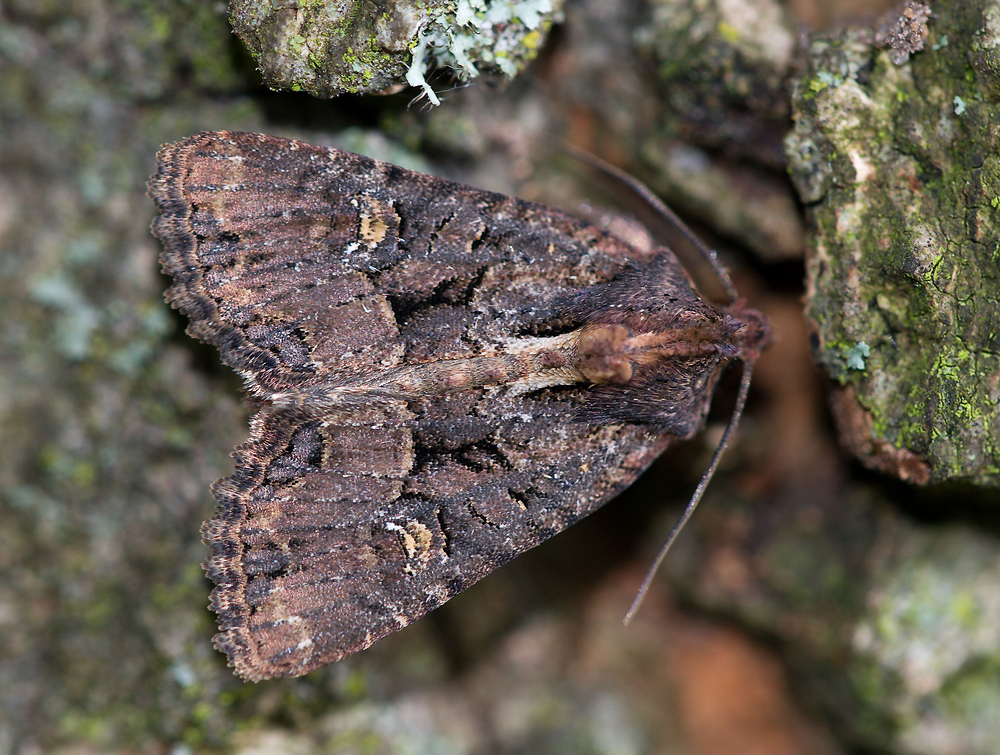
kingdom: Animalia
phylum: Arthropoda
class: Insecta
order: Lepidoptera
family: Noctuidae
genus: Mesapamea
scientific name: Mesapamea secalis
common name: Common rustic
